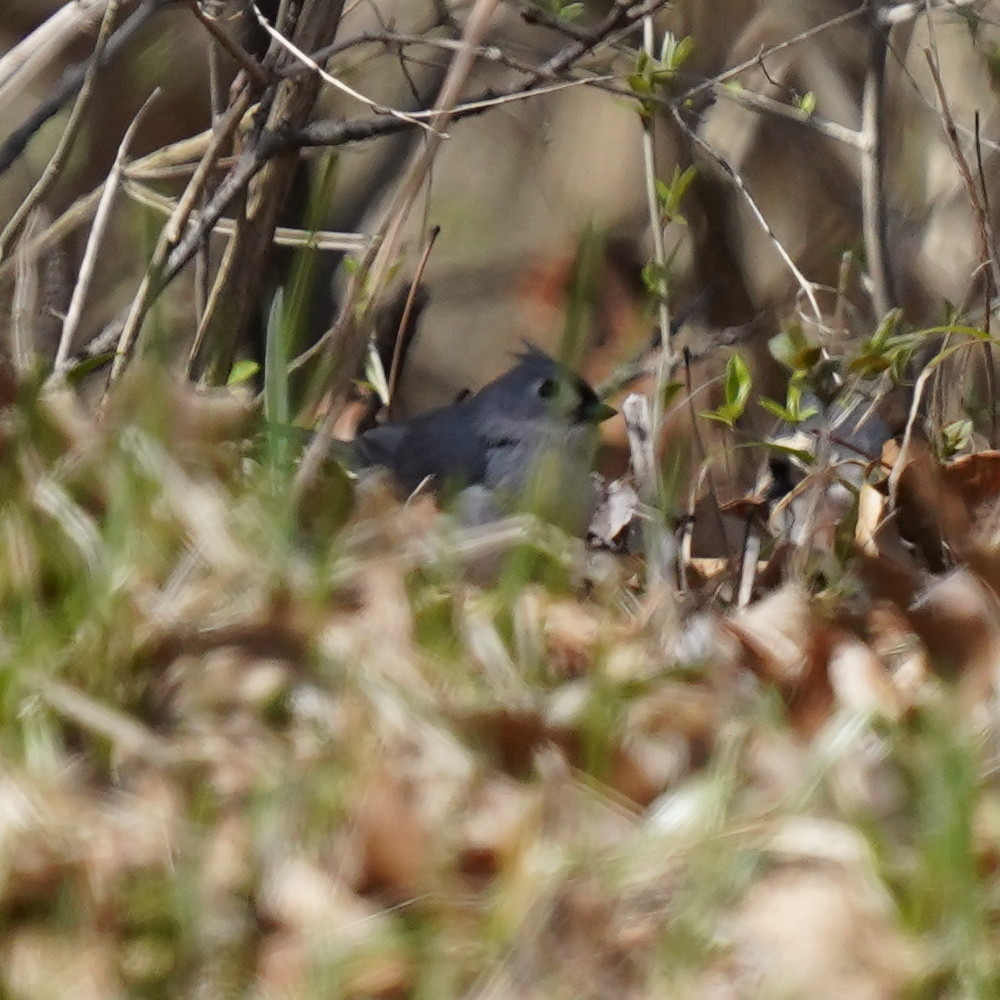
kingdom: Animalia
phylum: Chordata
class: Aves
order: Passeriformes
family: Paridae
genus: Baeolophus
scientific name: Baeolophus bicolor
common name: Tufted titmouse
